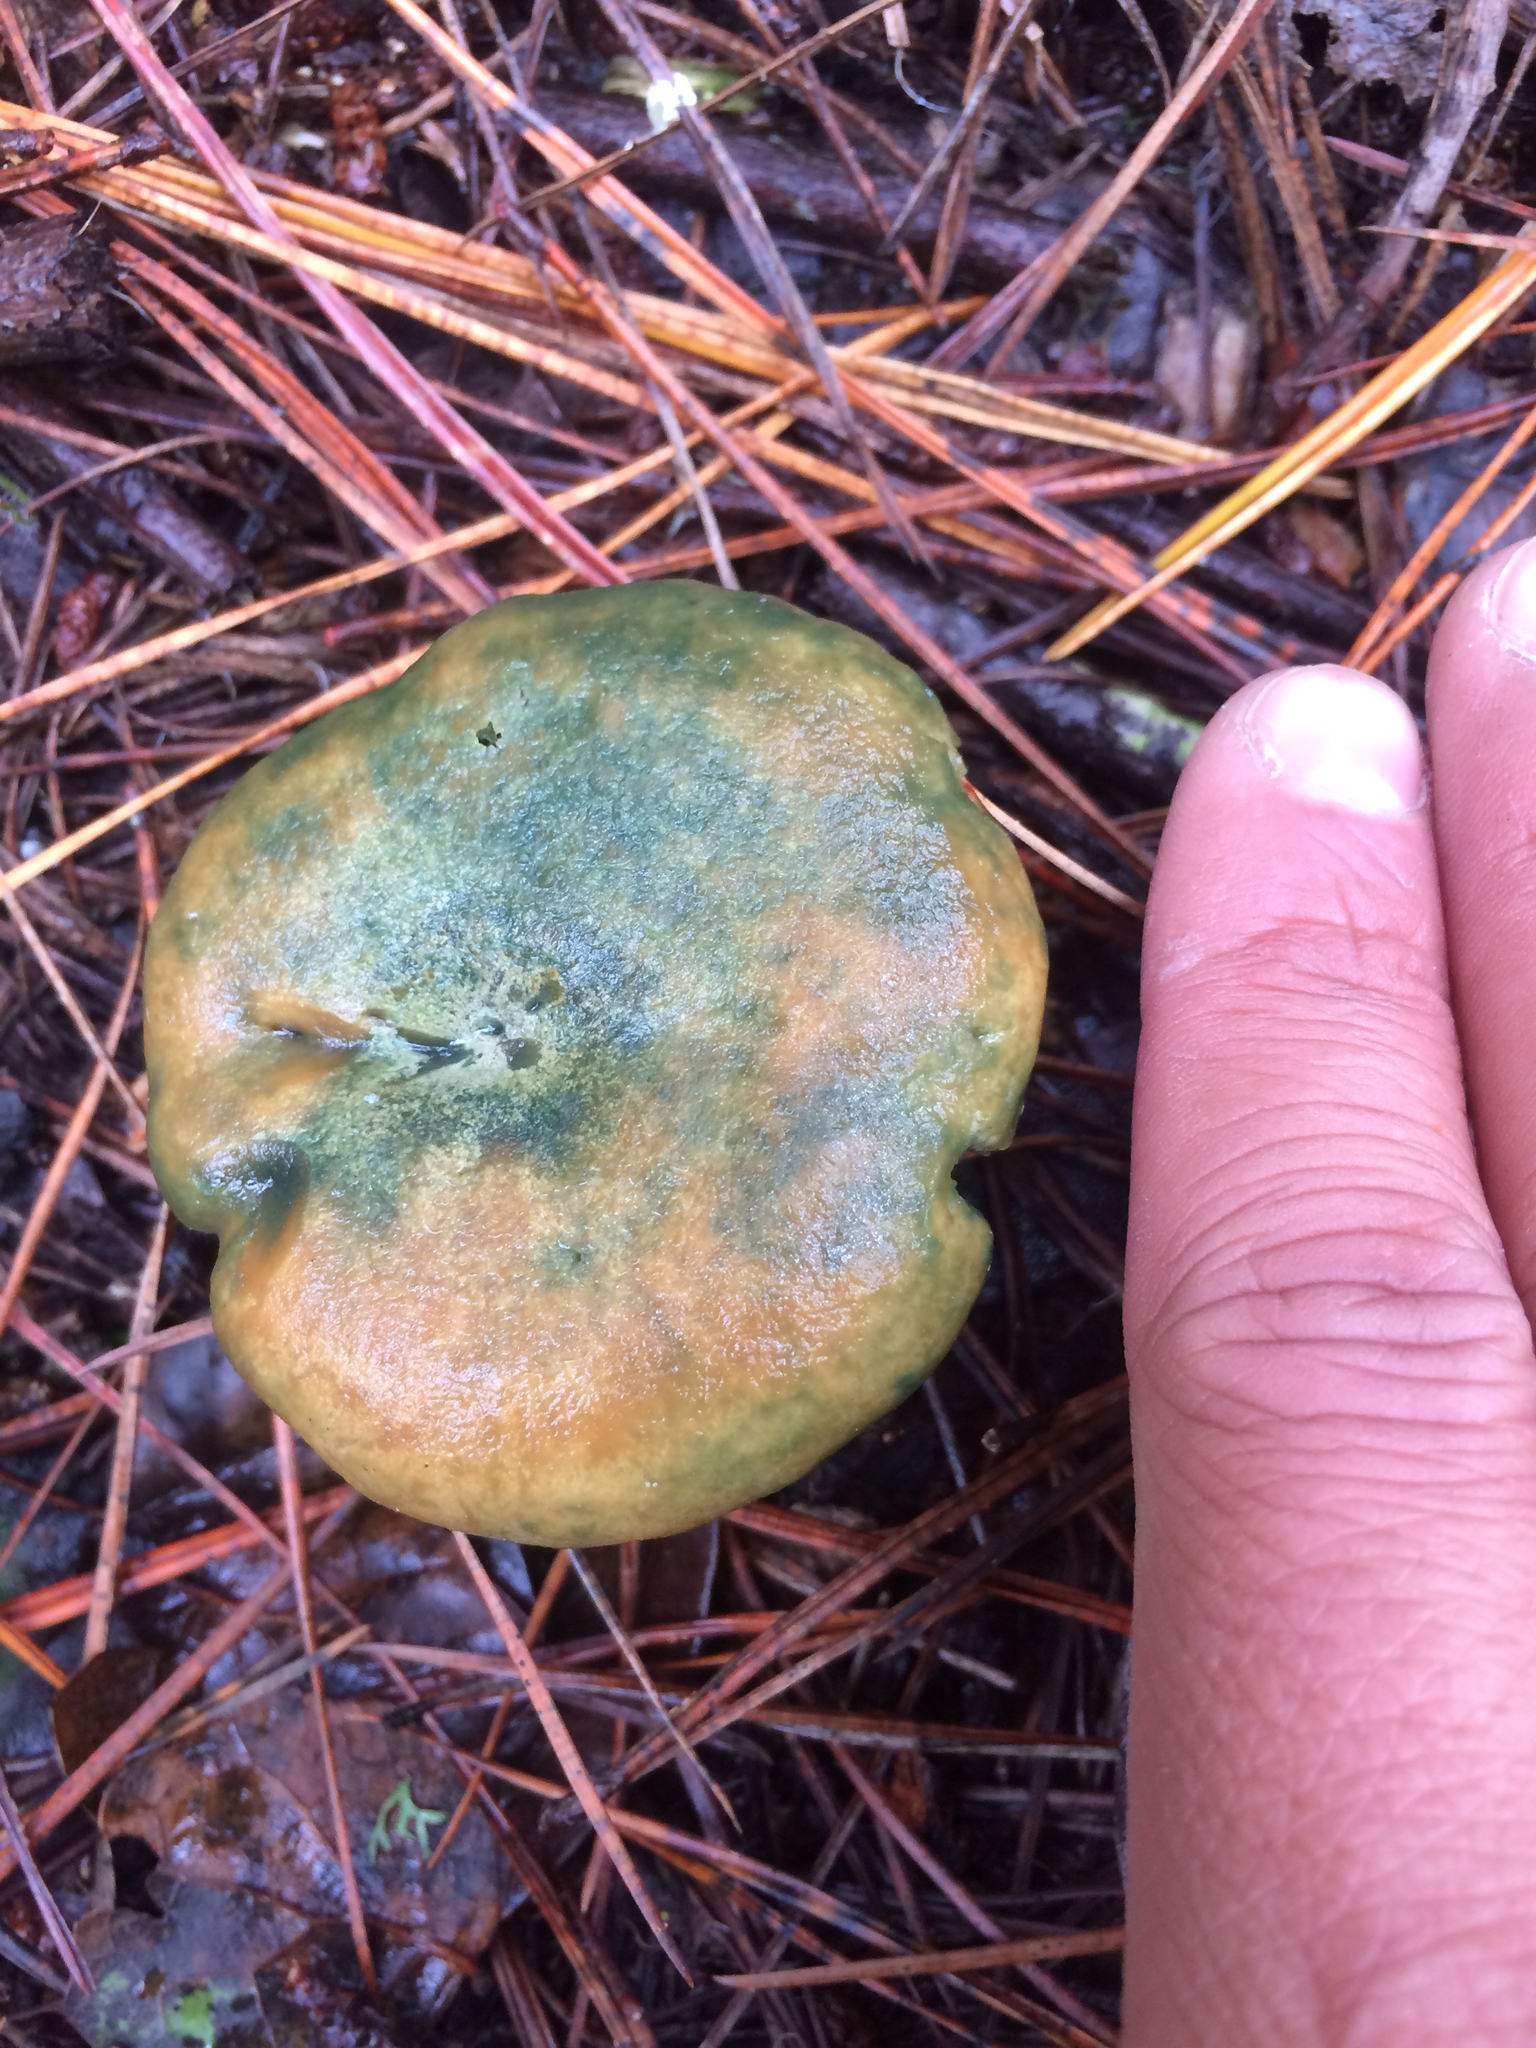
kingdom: Fungi
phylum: Basidiomycota
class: Agaricomycetes
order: Russulales
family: Russulaceae
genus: Lactarius
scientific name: Lactarius deliciosus
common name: Saffron milk-cap
